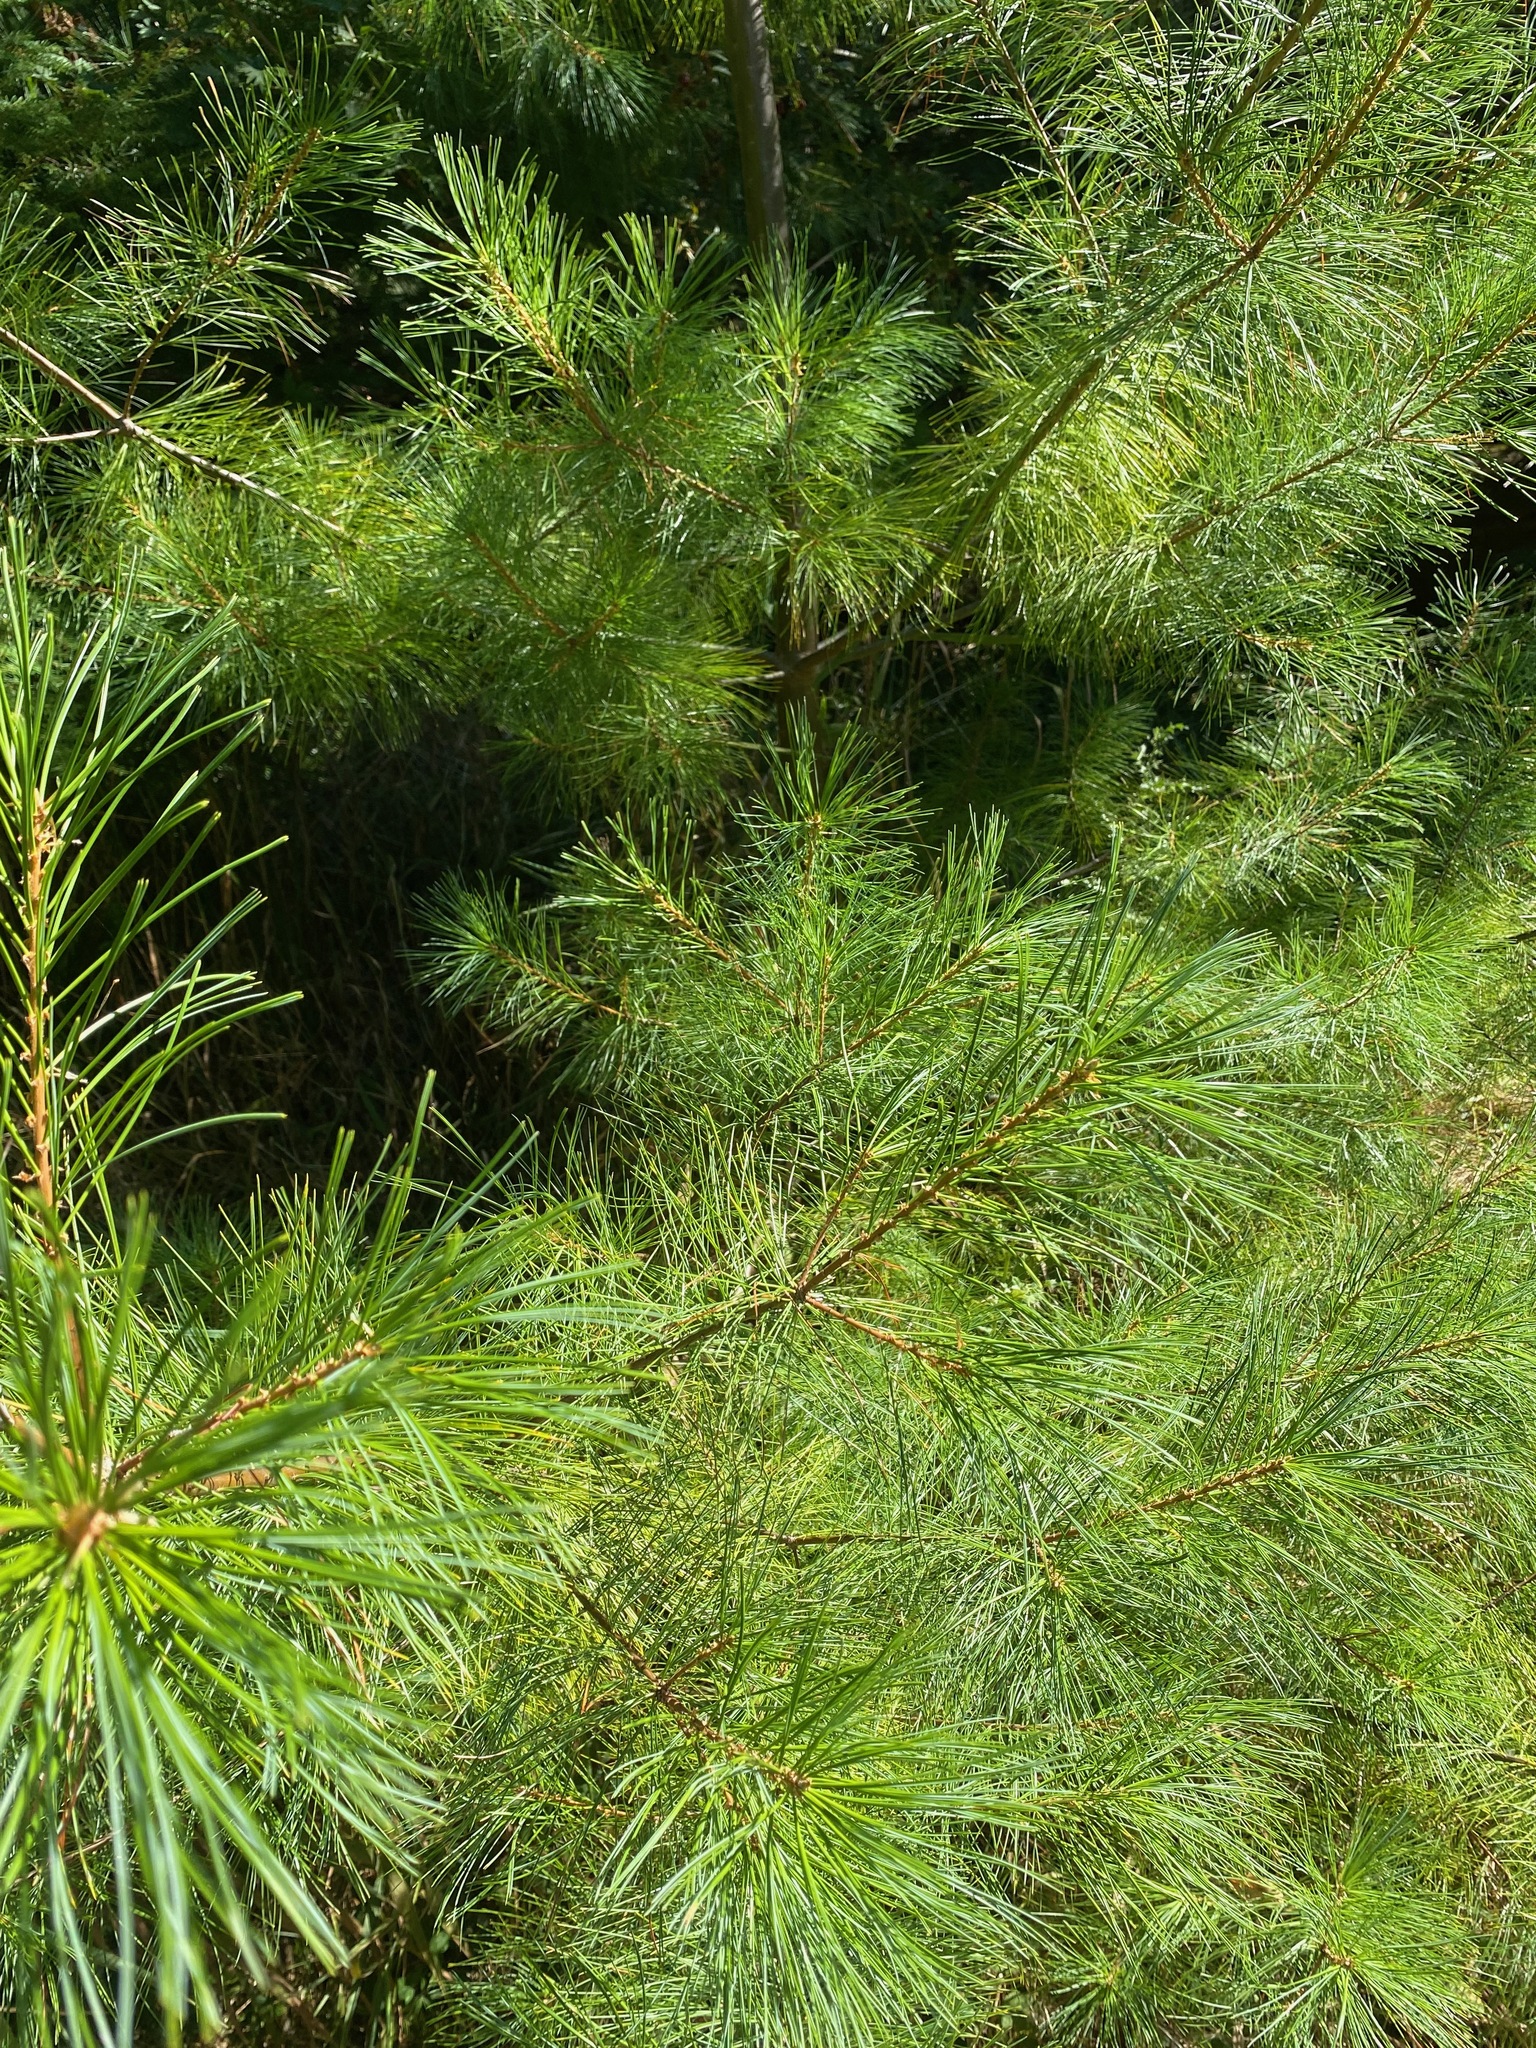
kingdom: Plantae
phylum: Tracheophyta
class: Pinopsida
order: Pinales
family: Pinaceae
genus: Pinus
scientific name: Pinus monticola
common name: Western white pine
